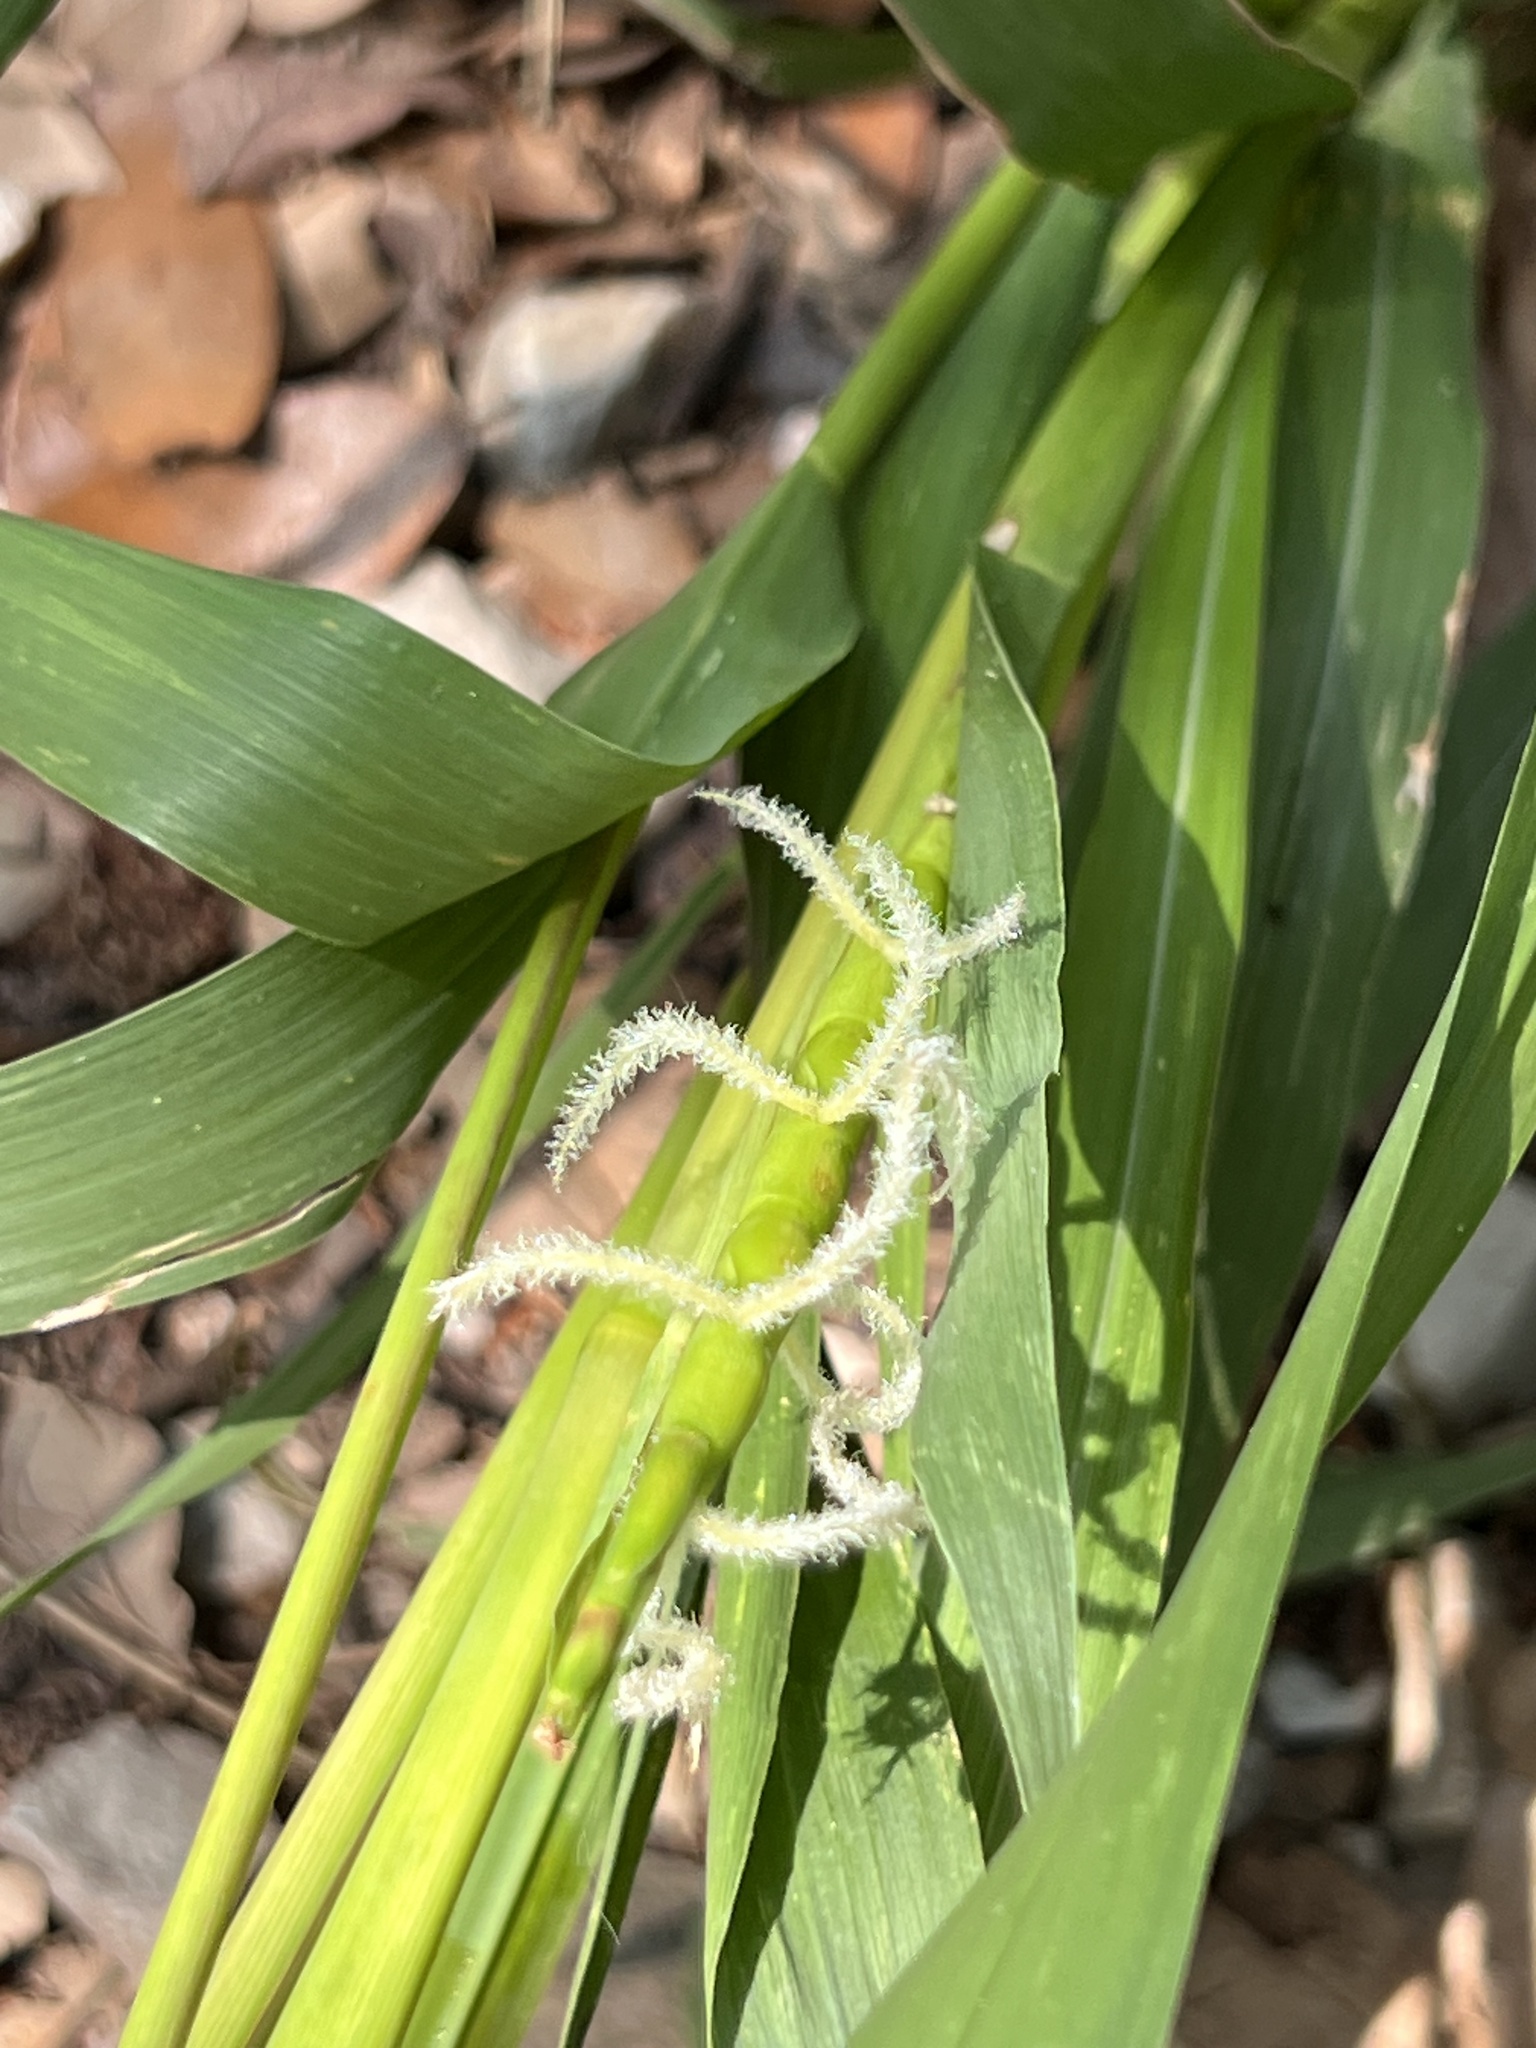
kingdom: Plantae
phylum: Tracheophyta
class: Liliopsida
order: Poales
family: Poaceae
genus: Tripsacum
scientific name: Tripsacum dactyloides
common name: Buffalo-grass
